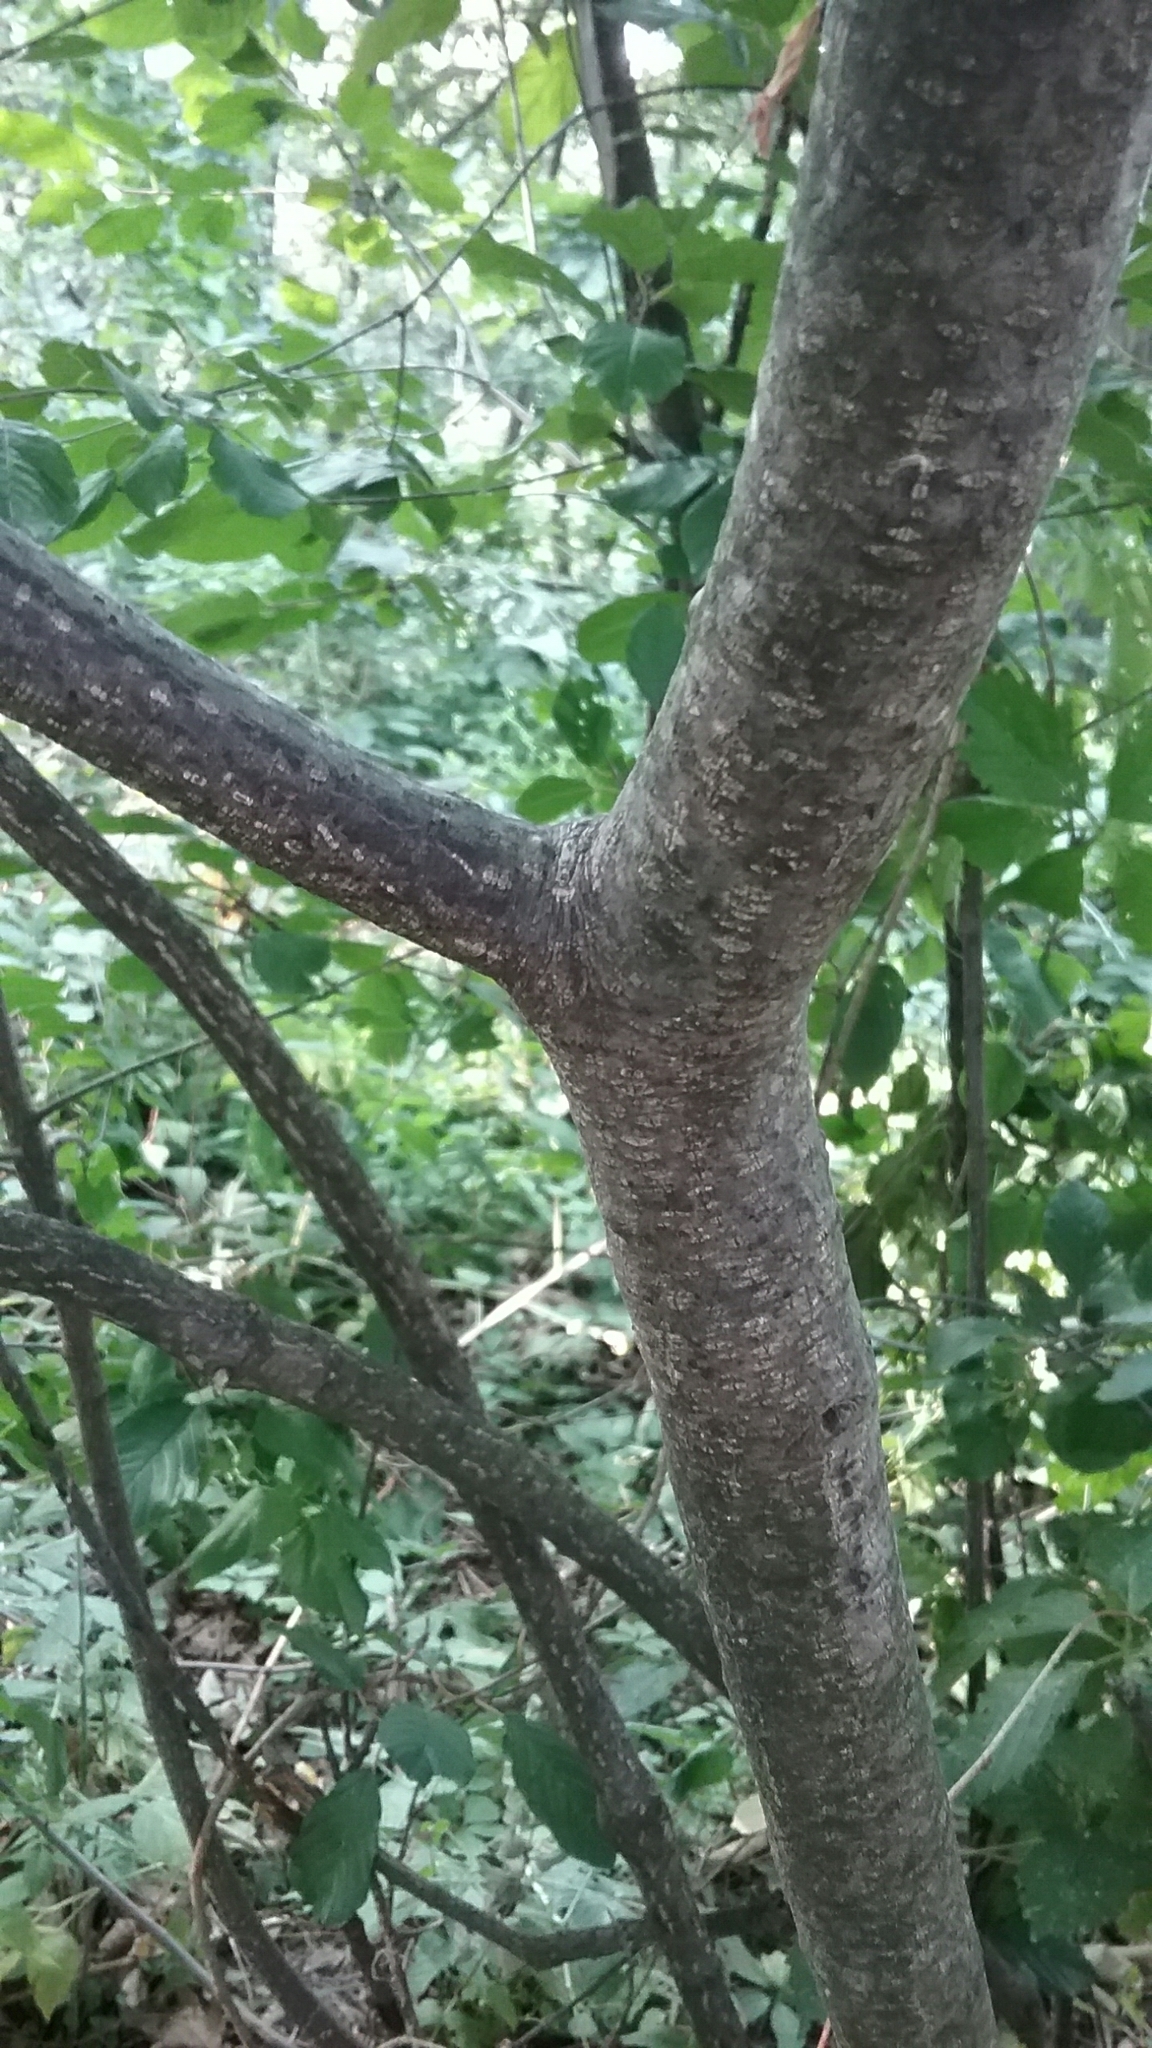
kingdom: Plantae
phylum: Tracheophyta
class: Magnoliopsida
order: Rosales
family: Rhamnaceae
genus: Frangula
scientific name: Frangula alnus
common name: Alder buckthorn
